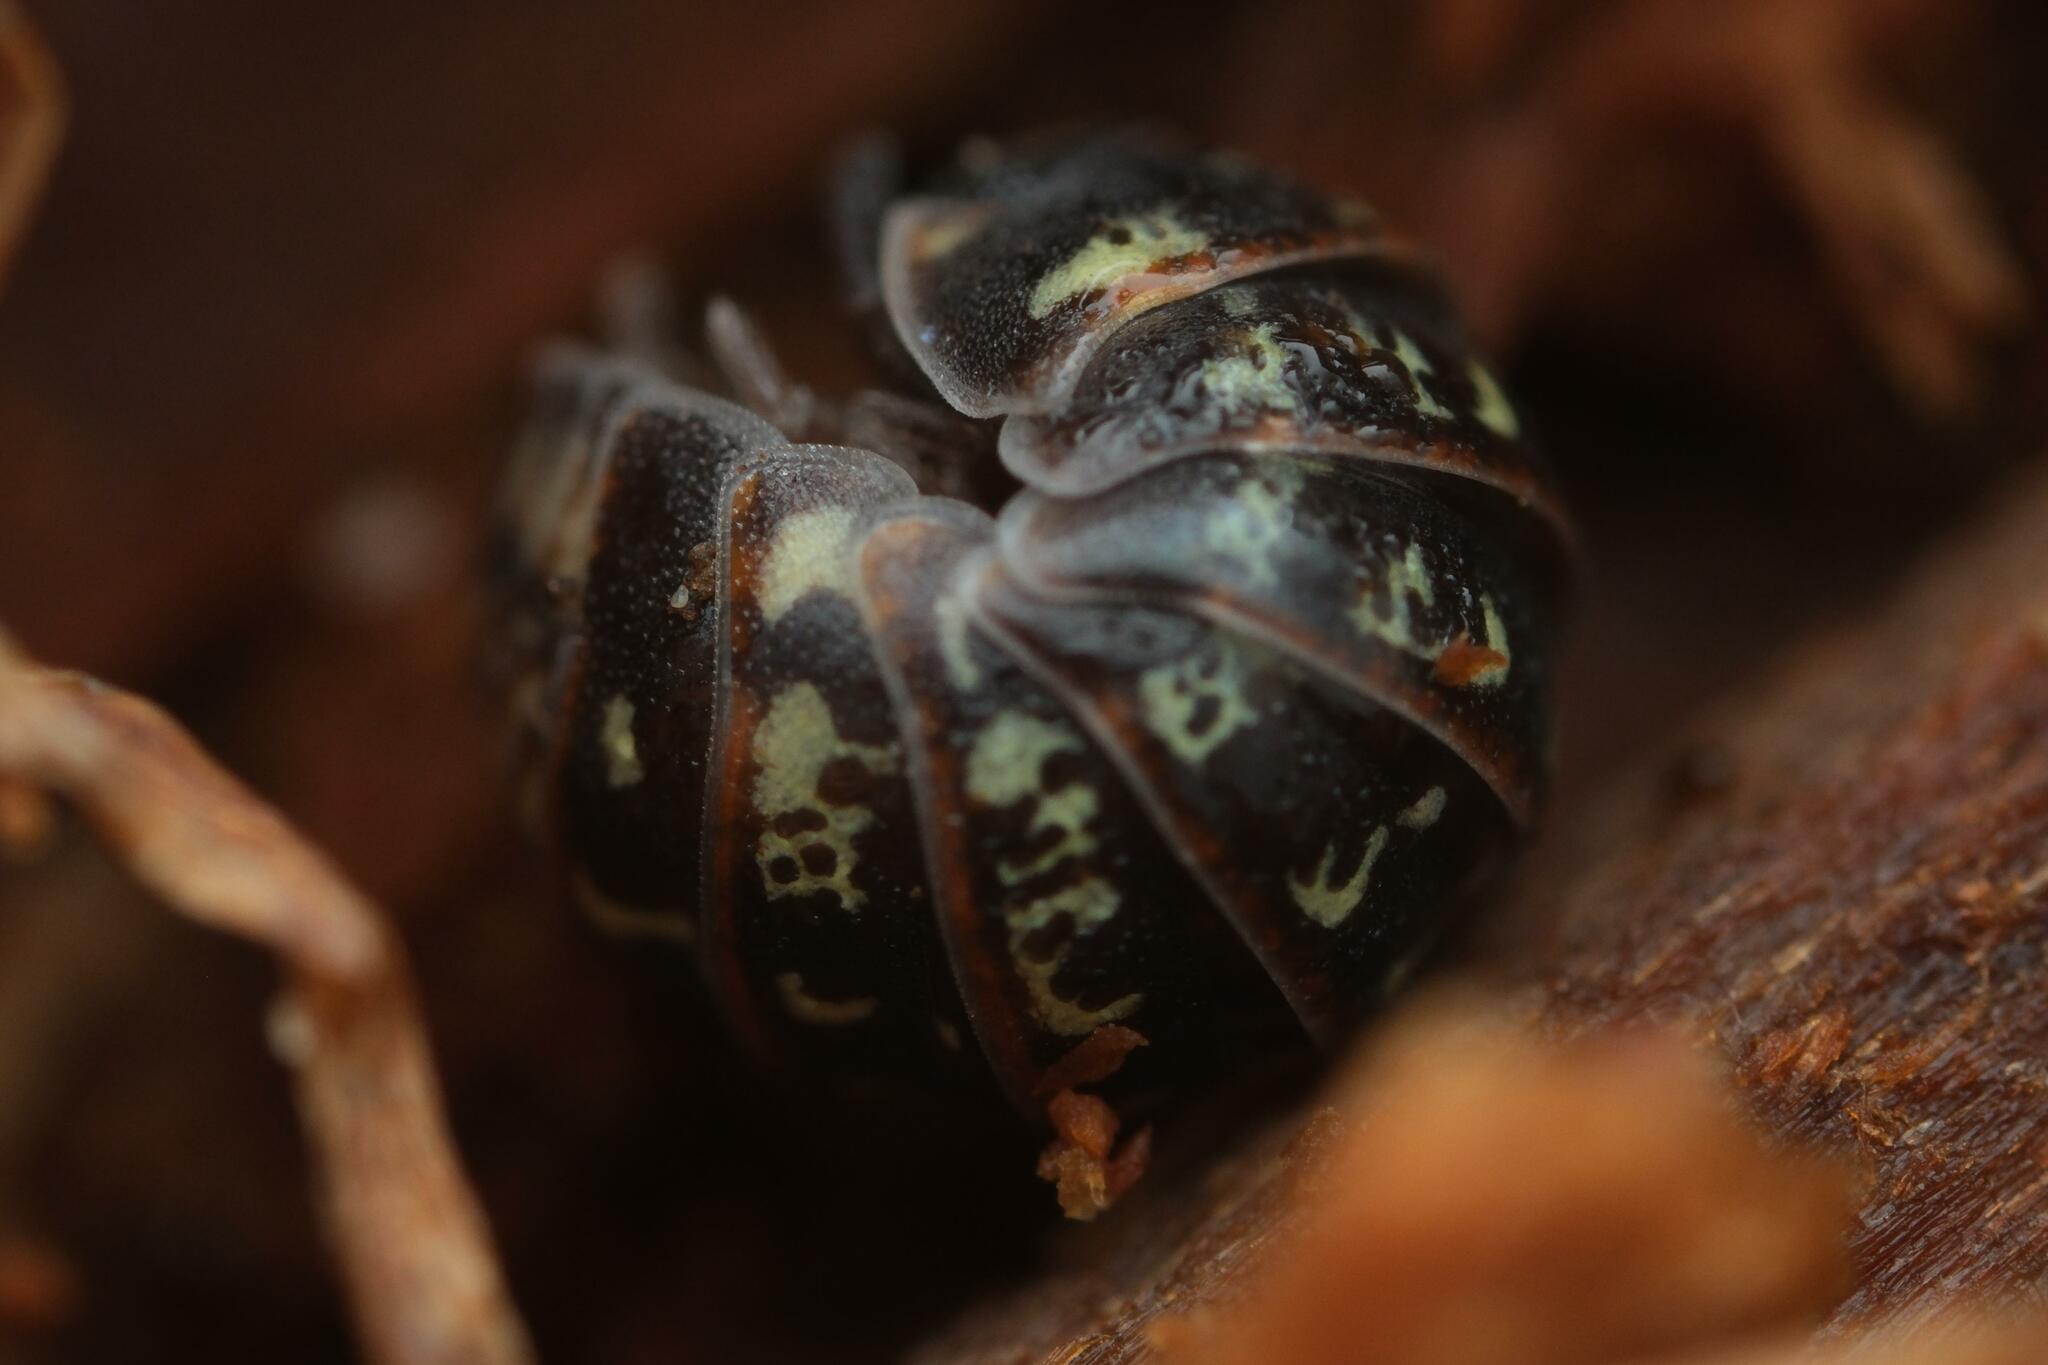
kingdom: Animalia
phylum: Arthropoda
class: Malacostraca
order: Isopoda
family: Armadillidiidae
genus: Armadillidium
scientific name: Armadillidium pulchellum
